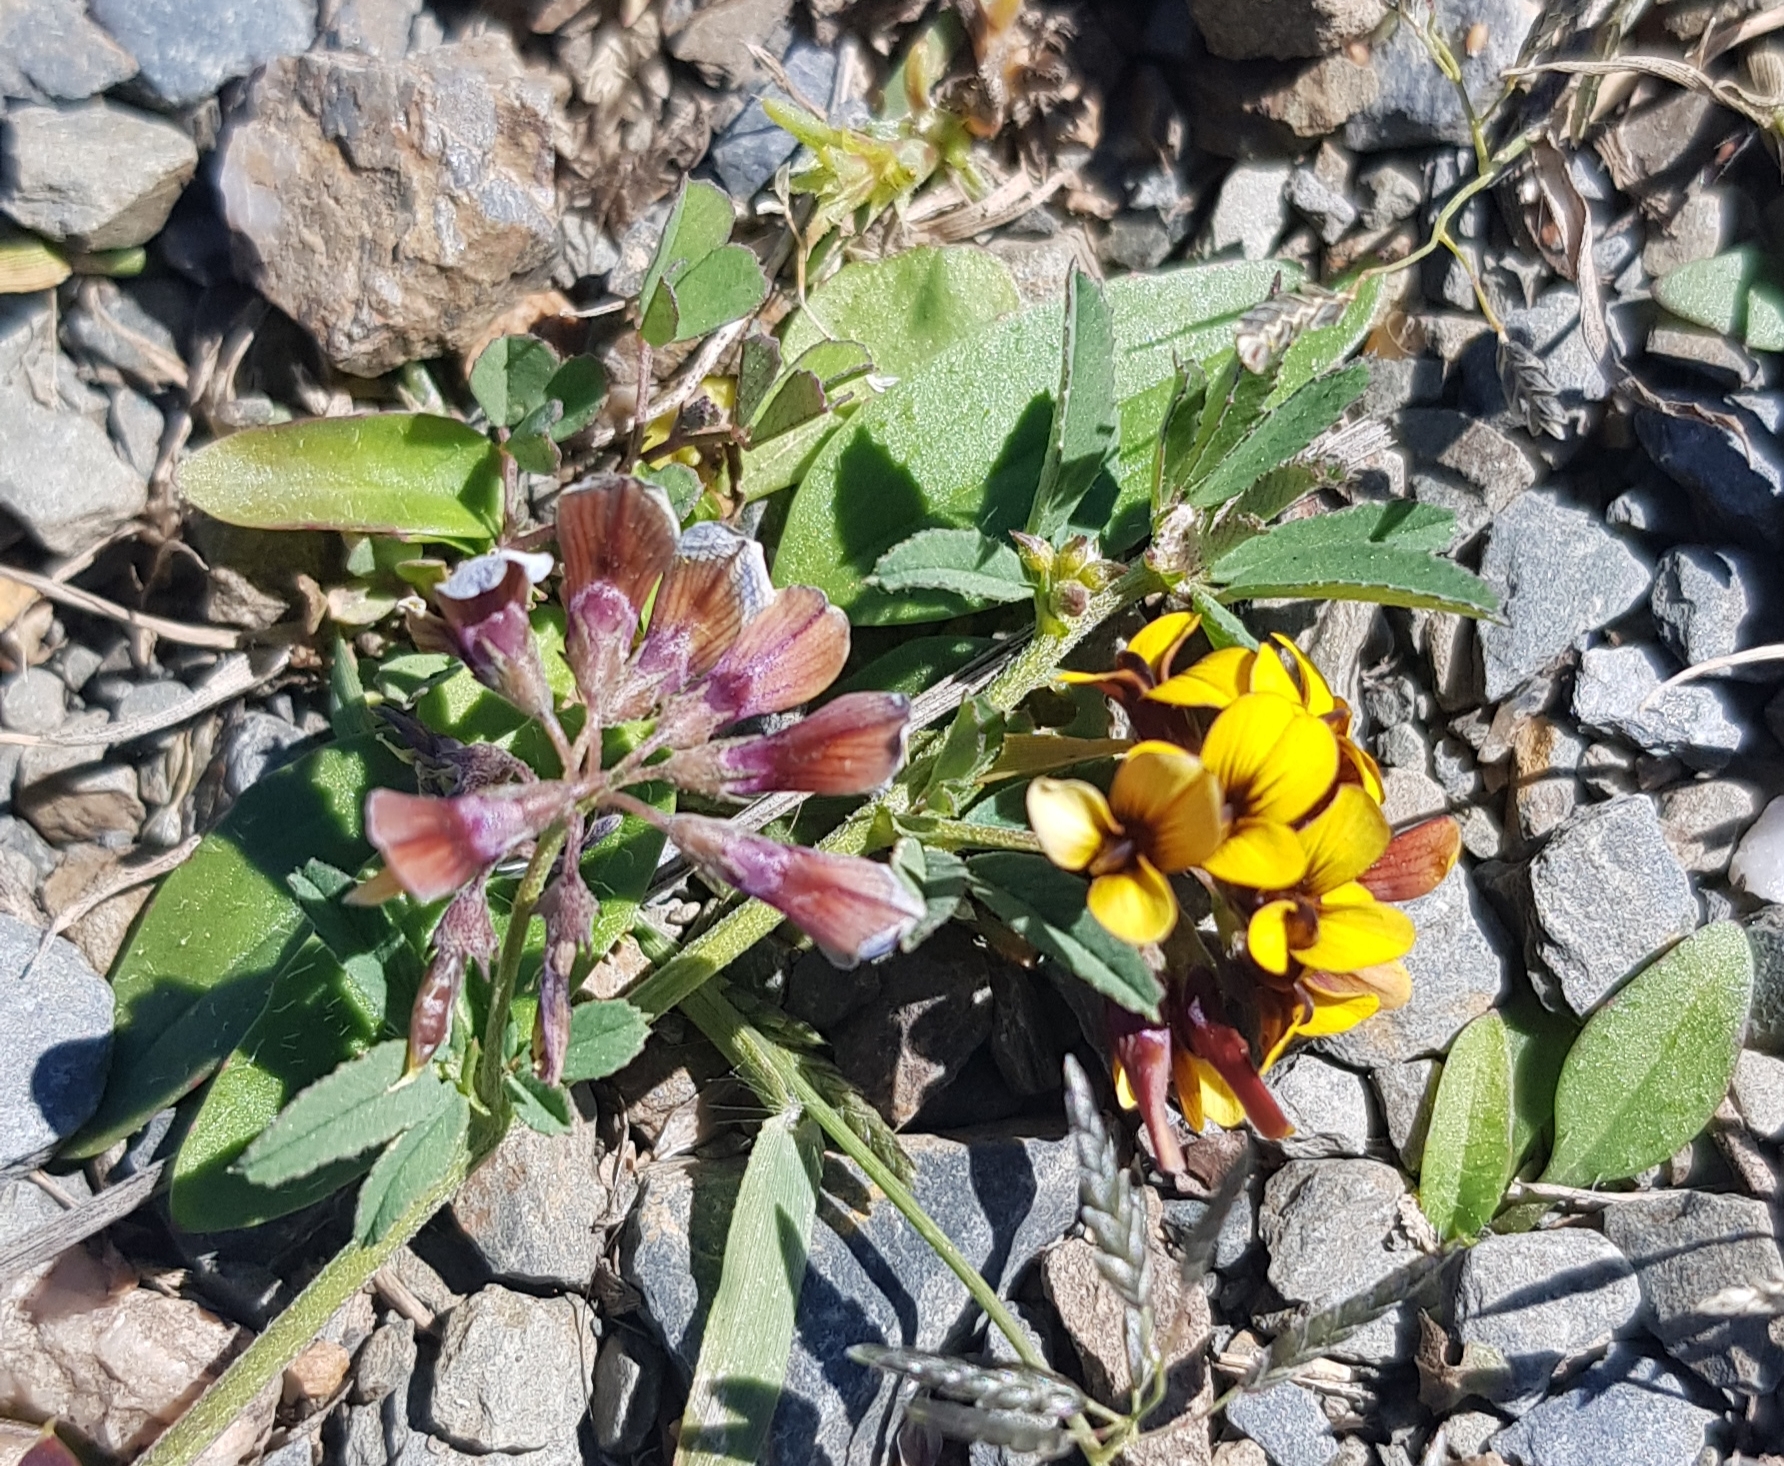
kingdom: Plantae
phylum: Tracheophyta
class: Magnoliopsida
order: Fabales
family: Fabaceae
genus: Medicago
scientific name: Medicago ruthenica
